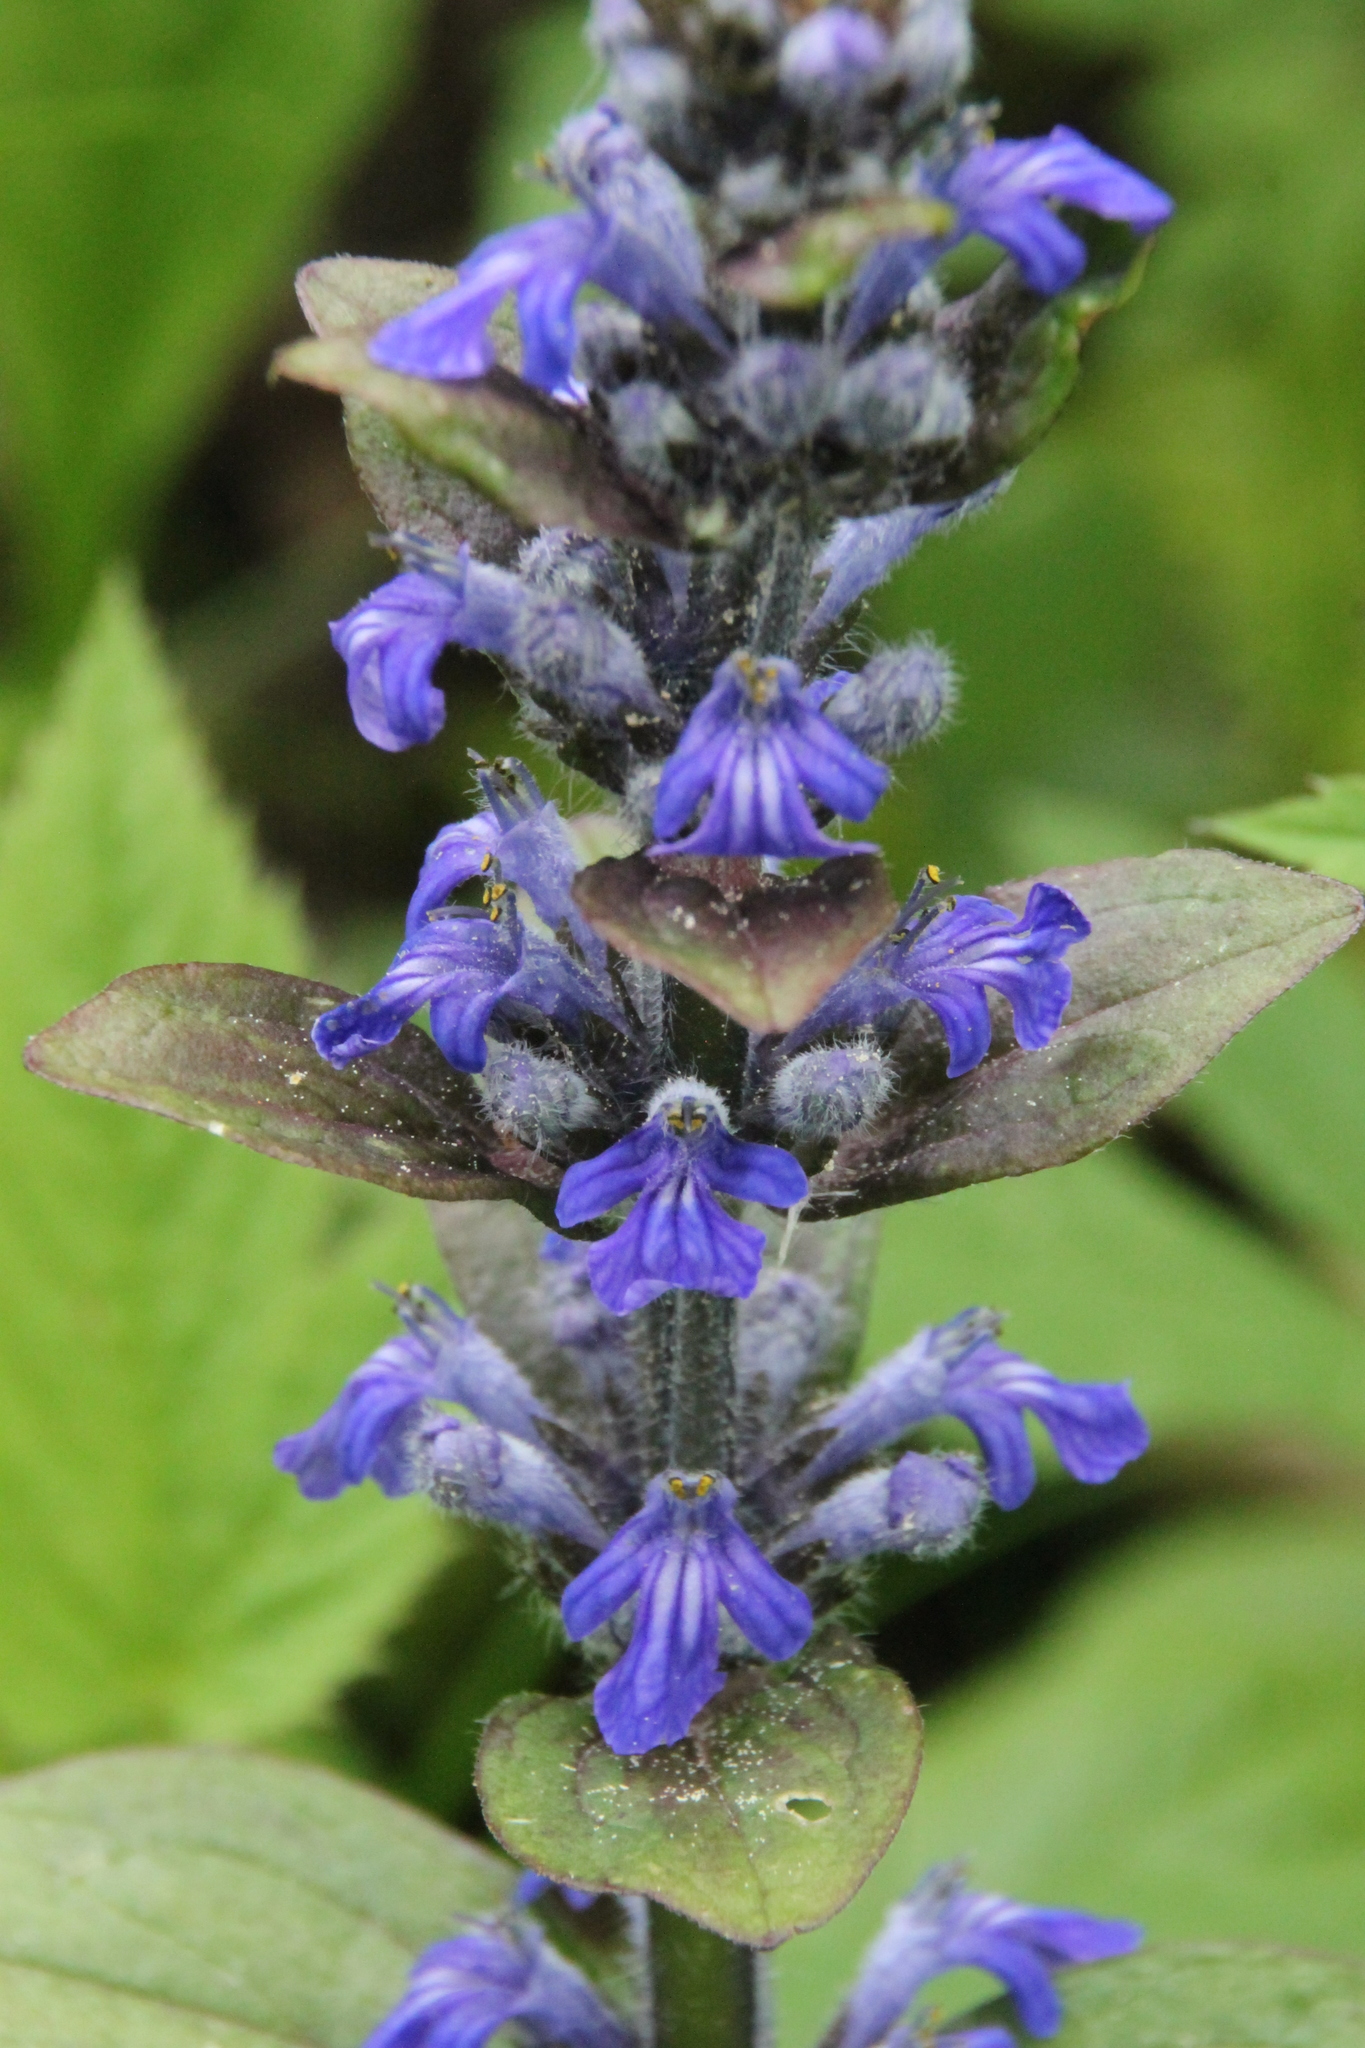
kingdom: Plantae
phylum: Tracheophyta
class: Magnoliopsida
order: Lamiales
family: Lamiaceae
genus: Ajuga
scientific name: Ajuga reptans
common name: Bugle
